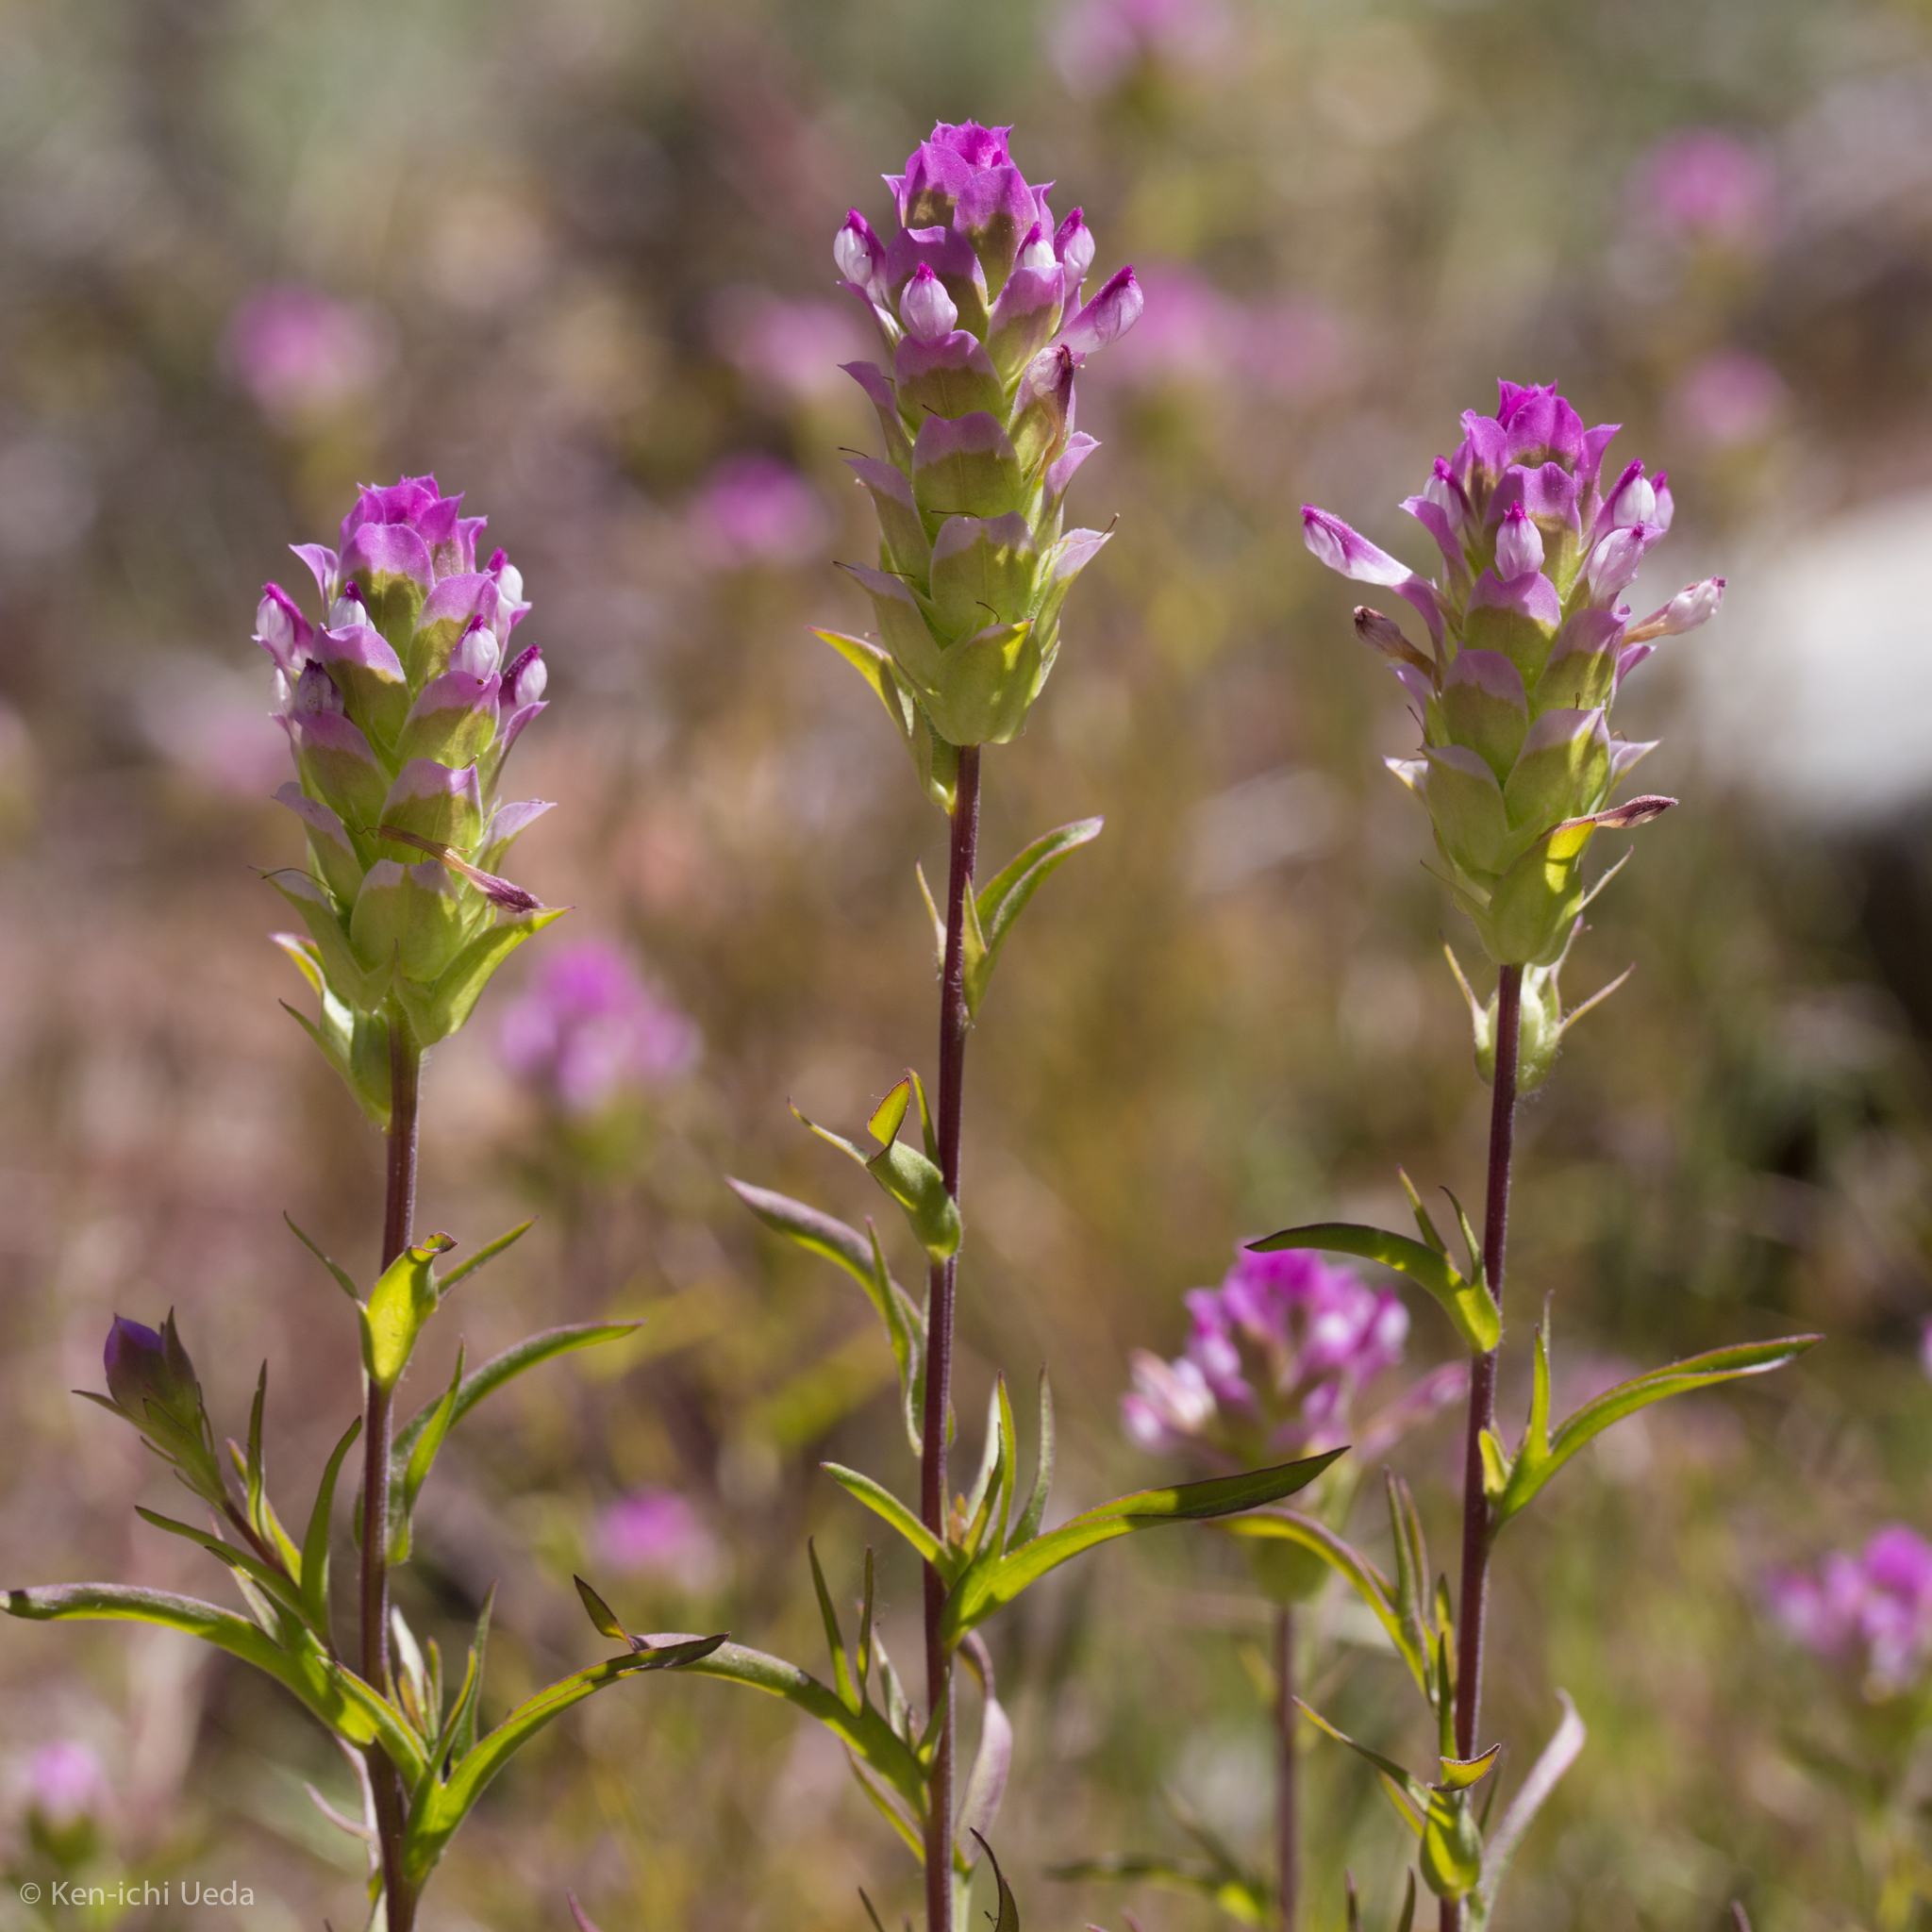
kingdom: Plantae
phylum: Tracheophyta
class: Magnoliopsida
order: Lamiales
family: Orobanchaceae
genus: Orthocarpus
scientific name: Orthocarpus cuspidatus
